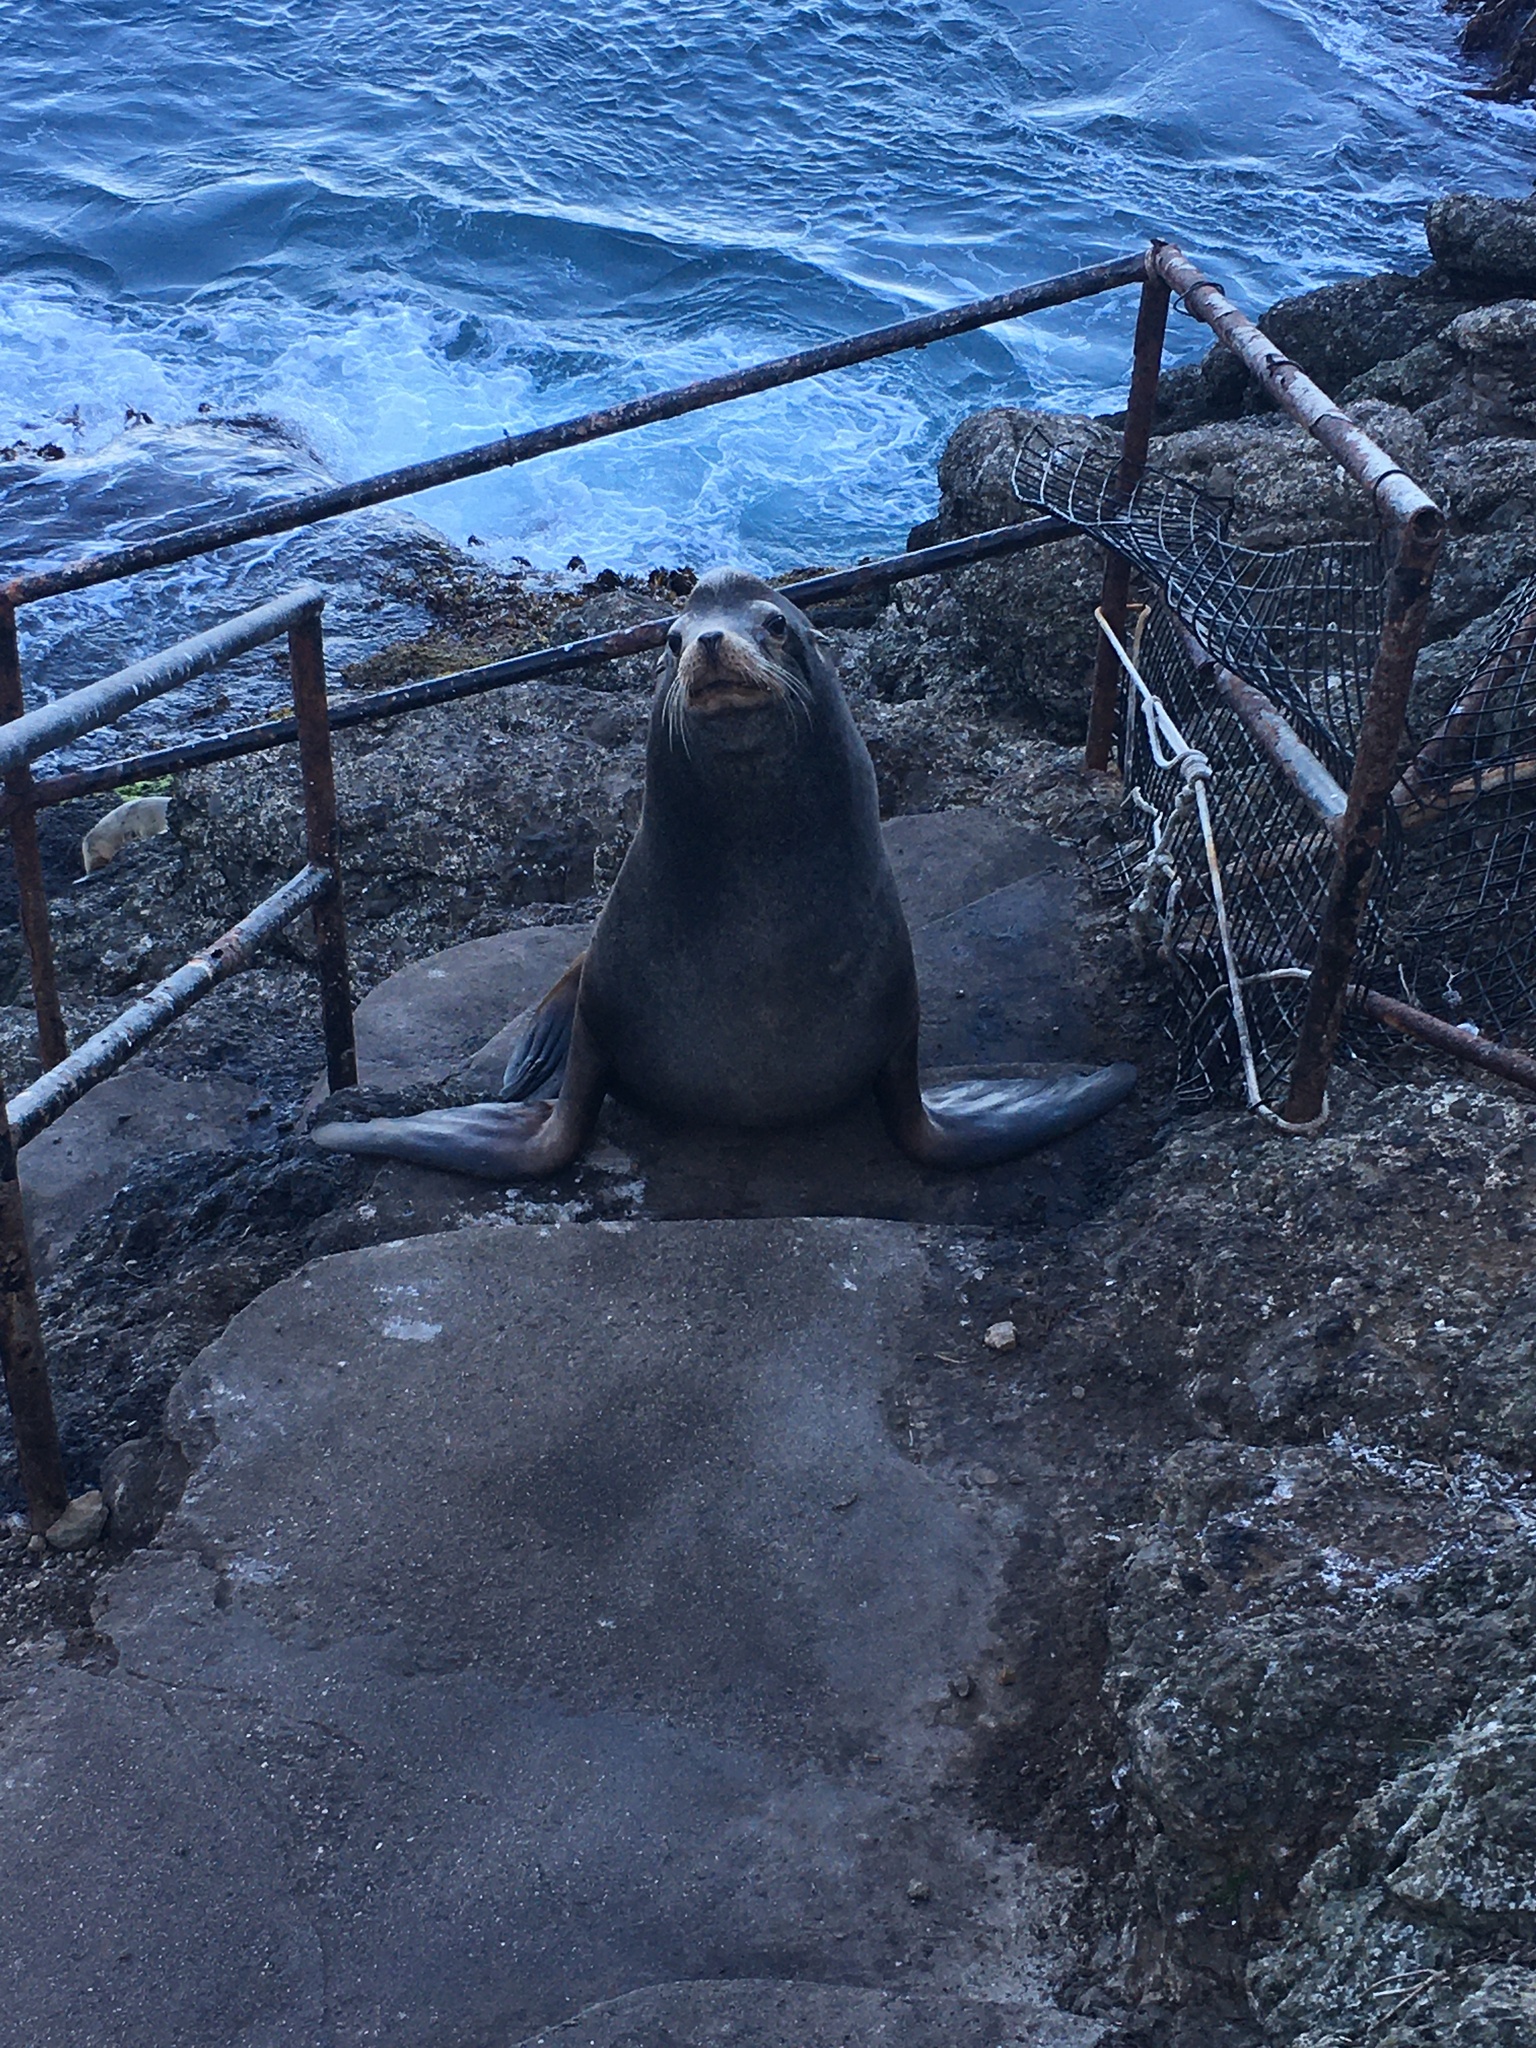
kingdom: Animalia
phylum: Chordata
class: Mammalia
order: Carnivora
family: Otariidae
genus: Zalophus
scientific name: Zalophus californianus
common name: California sea lion
